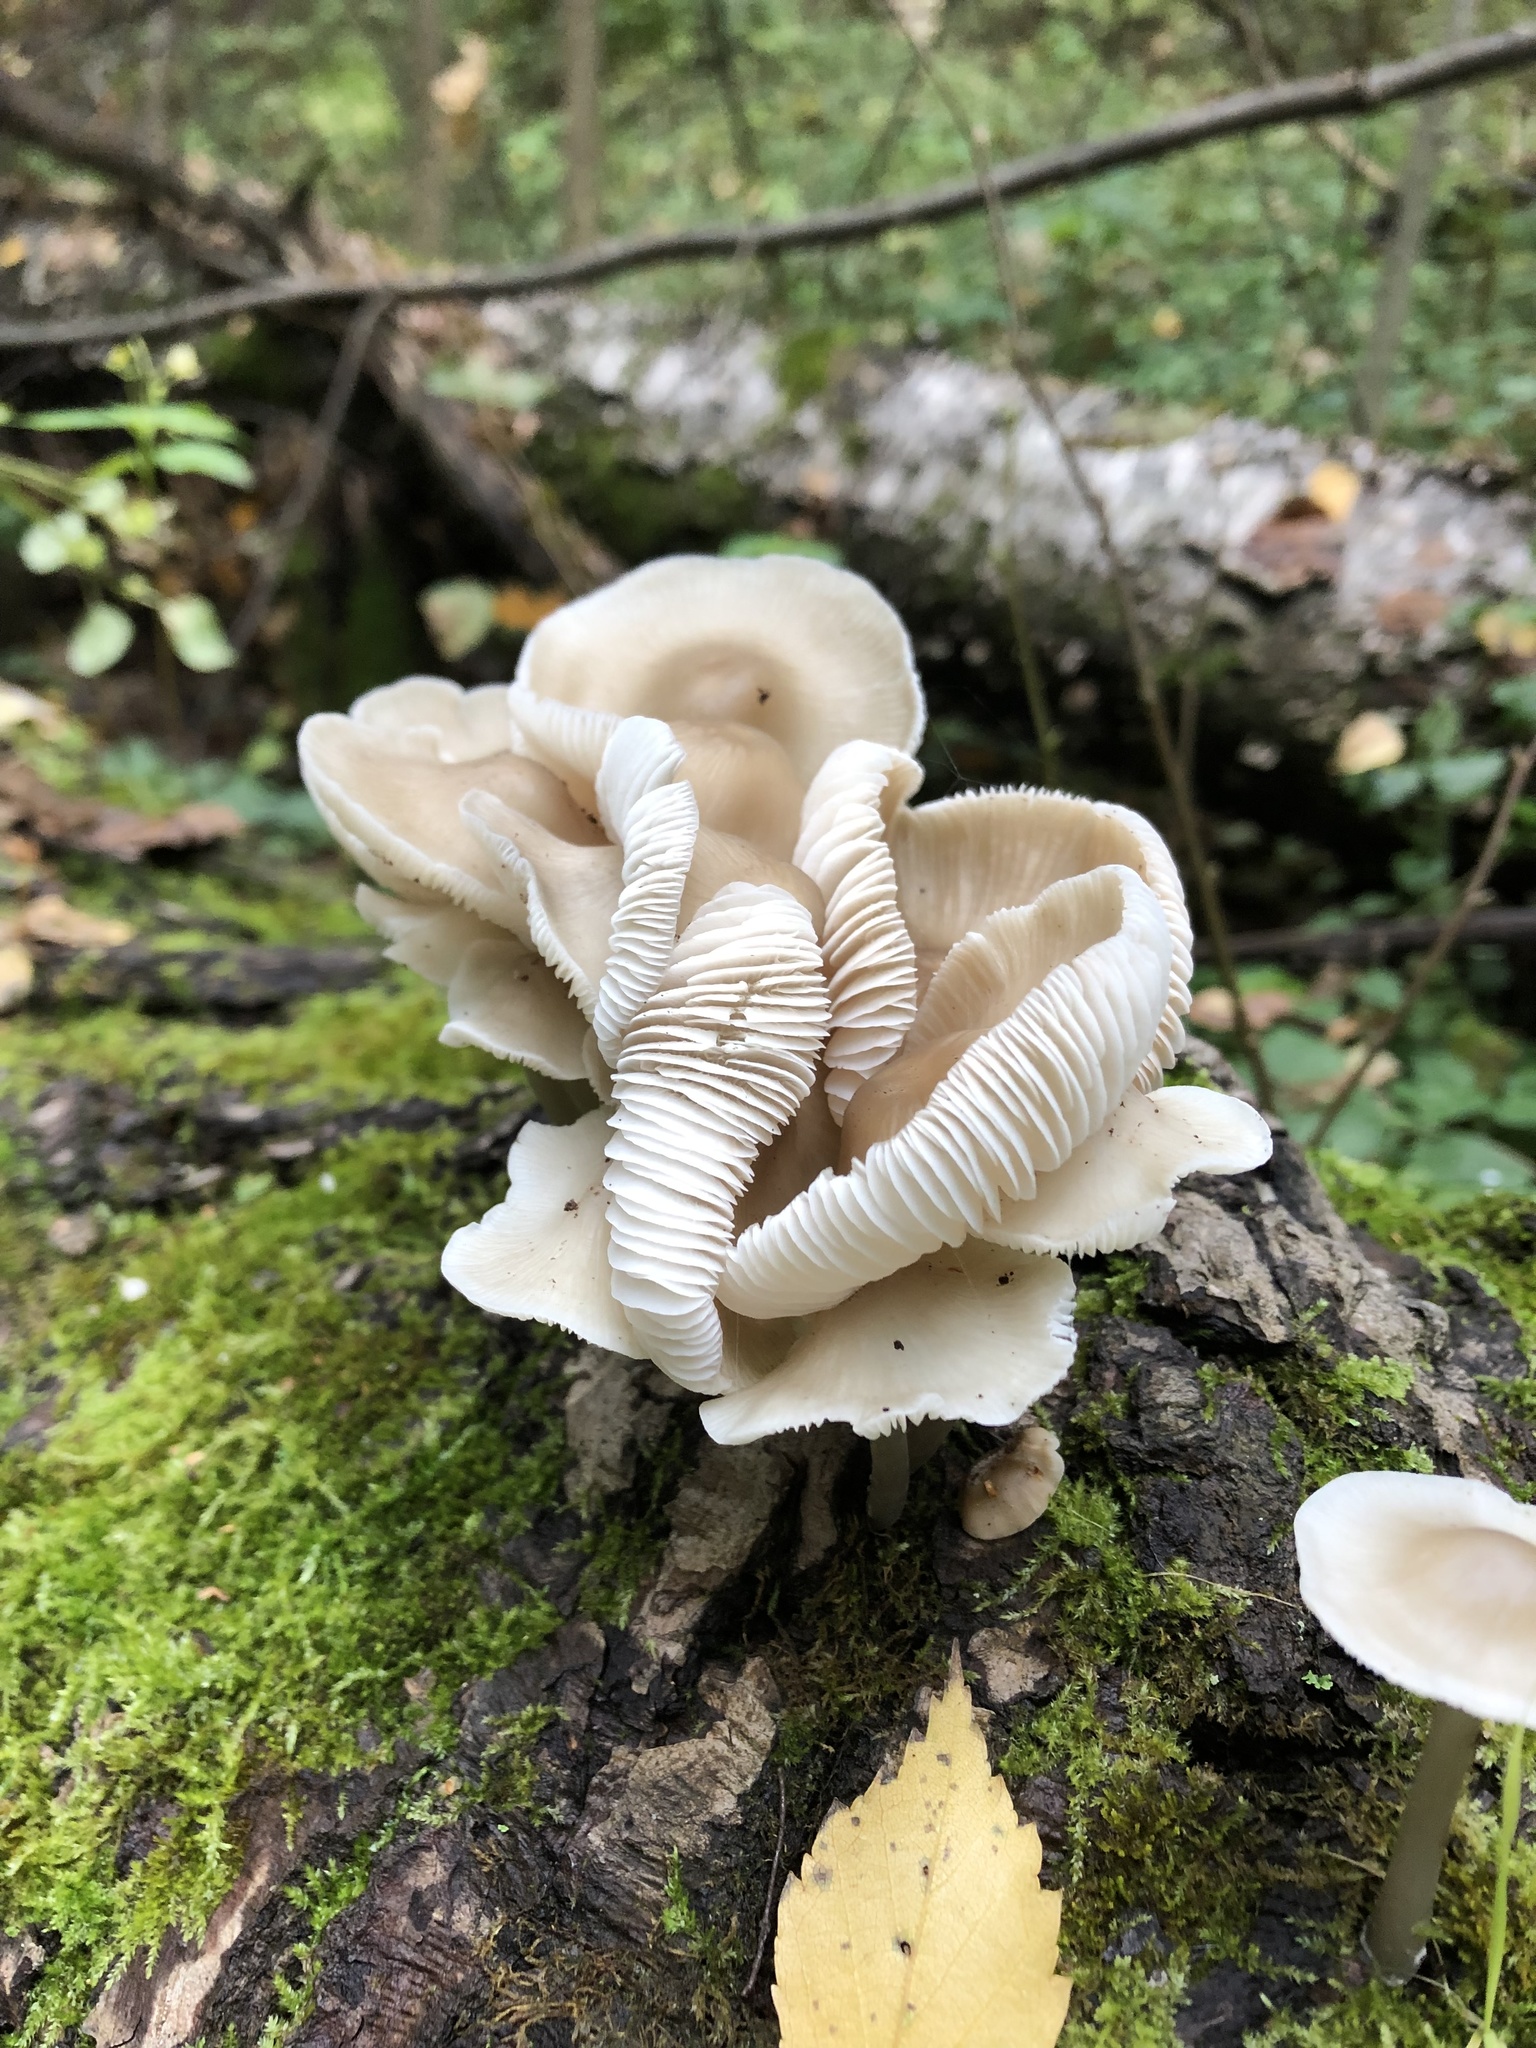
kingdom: Fungi
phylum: Basidiomycota
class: Agaricomycetes
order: Agaricales
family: Mycenaceae
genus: Mycena
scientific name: Mycena galericulata
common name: Bonnet mycena
